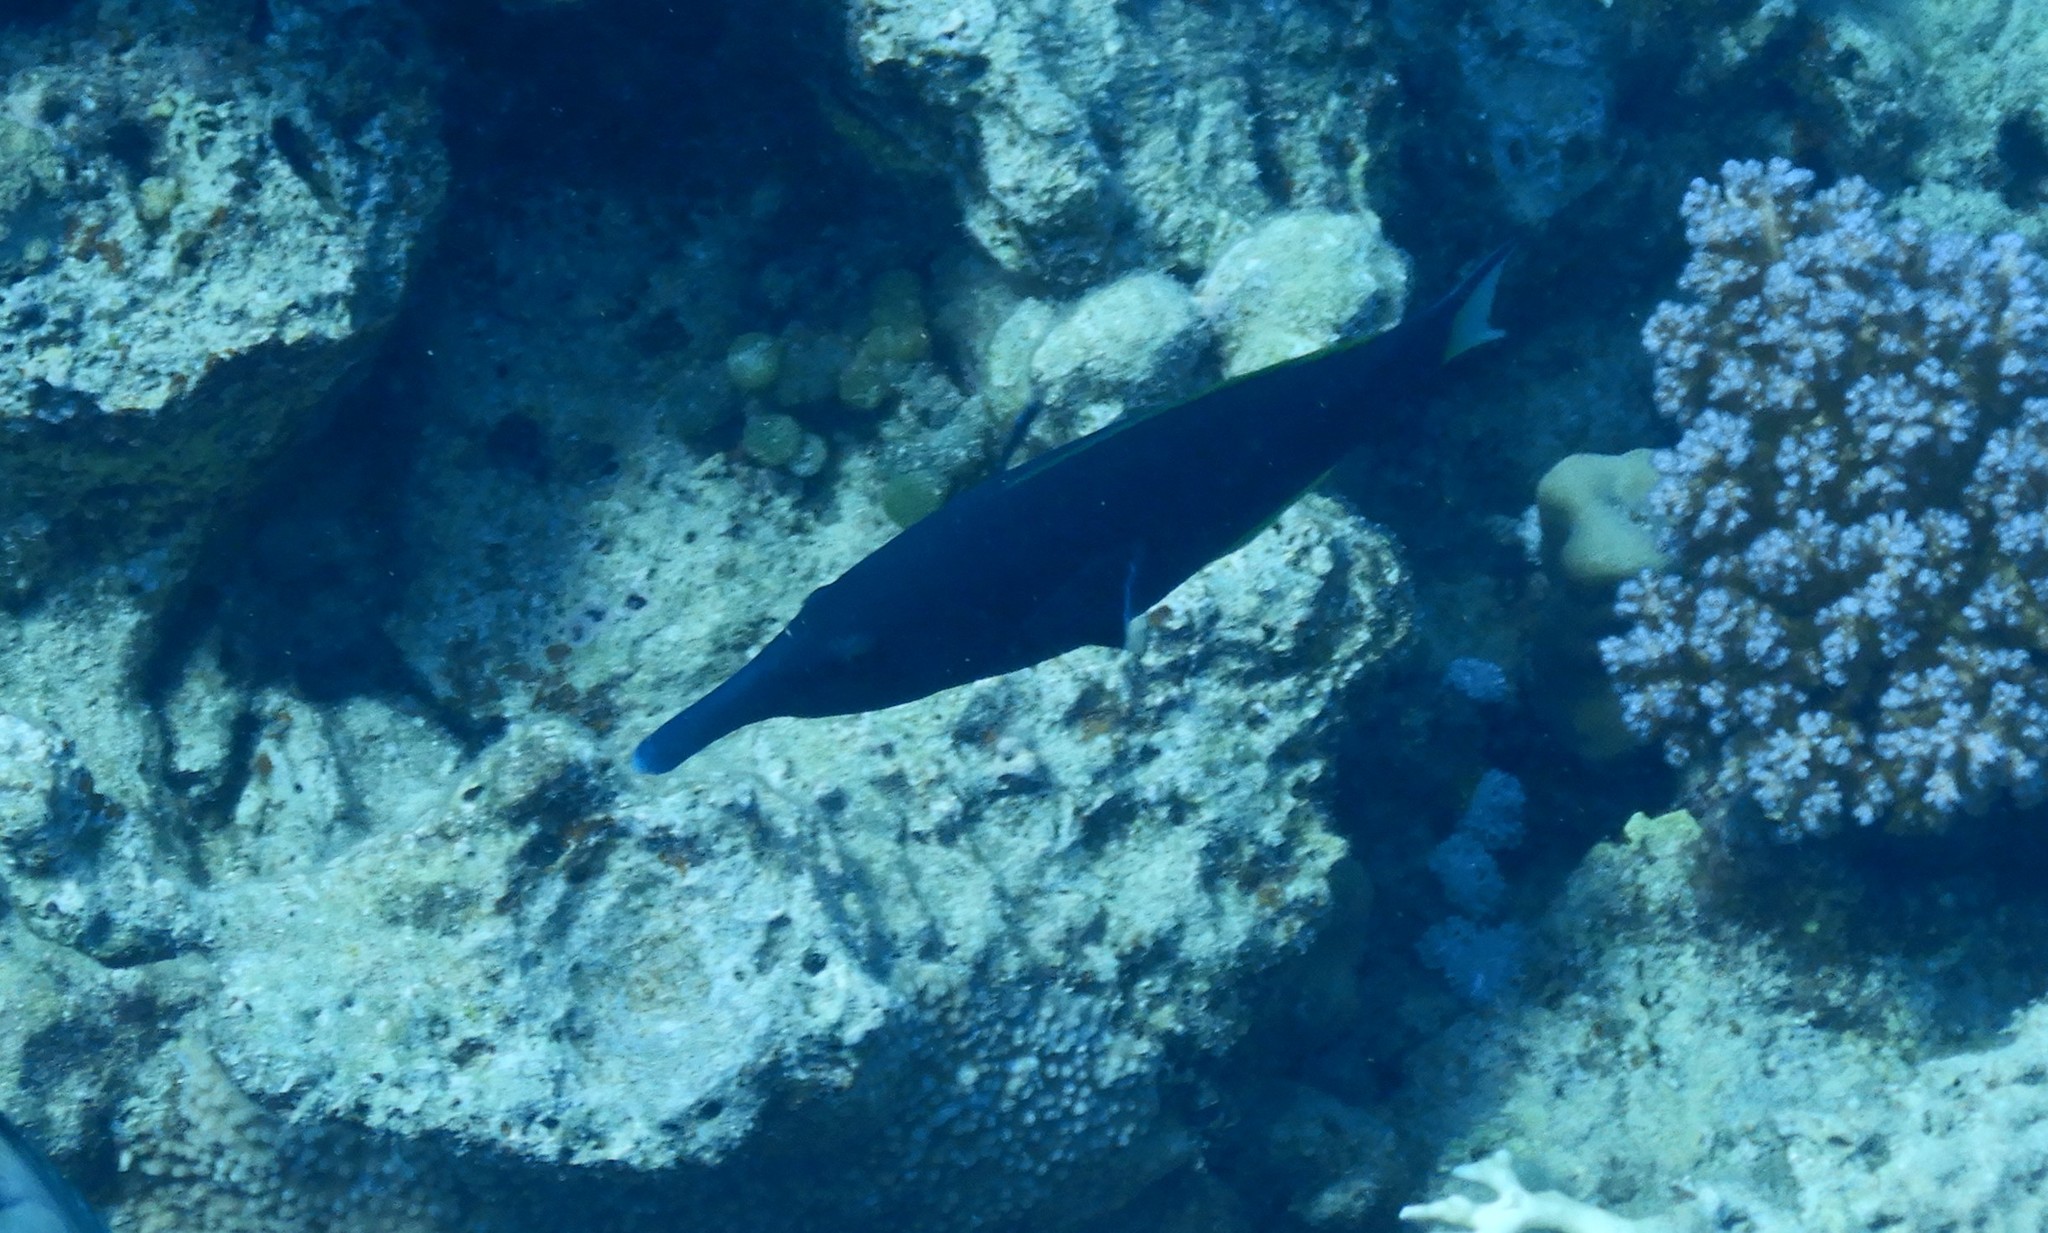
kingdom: Animalia
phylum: Chordata
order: Perciformes
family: Labridae
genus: Gomphosus
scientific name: Gomphosus klunzingeri
